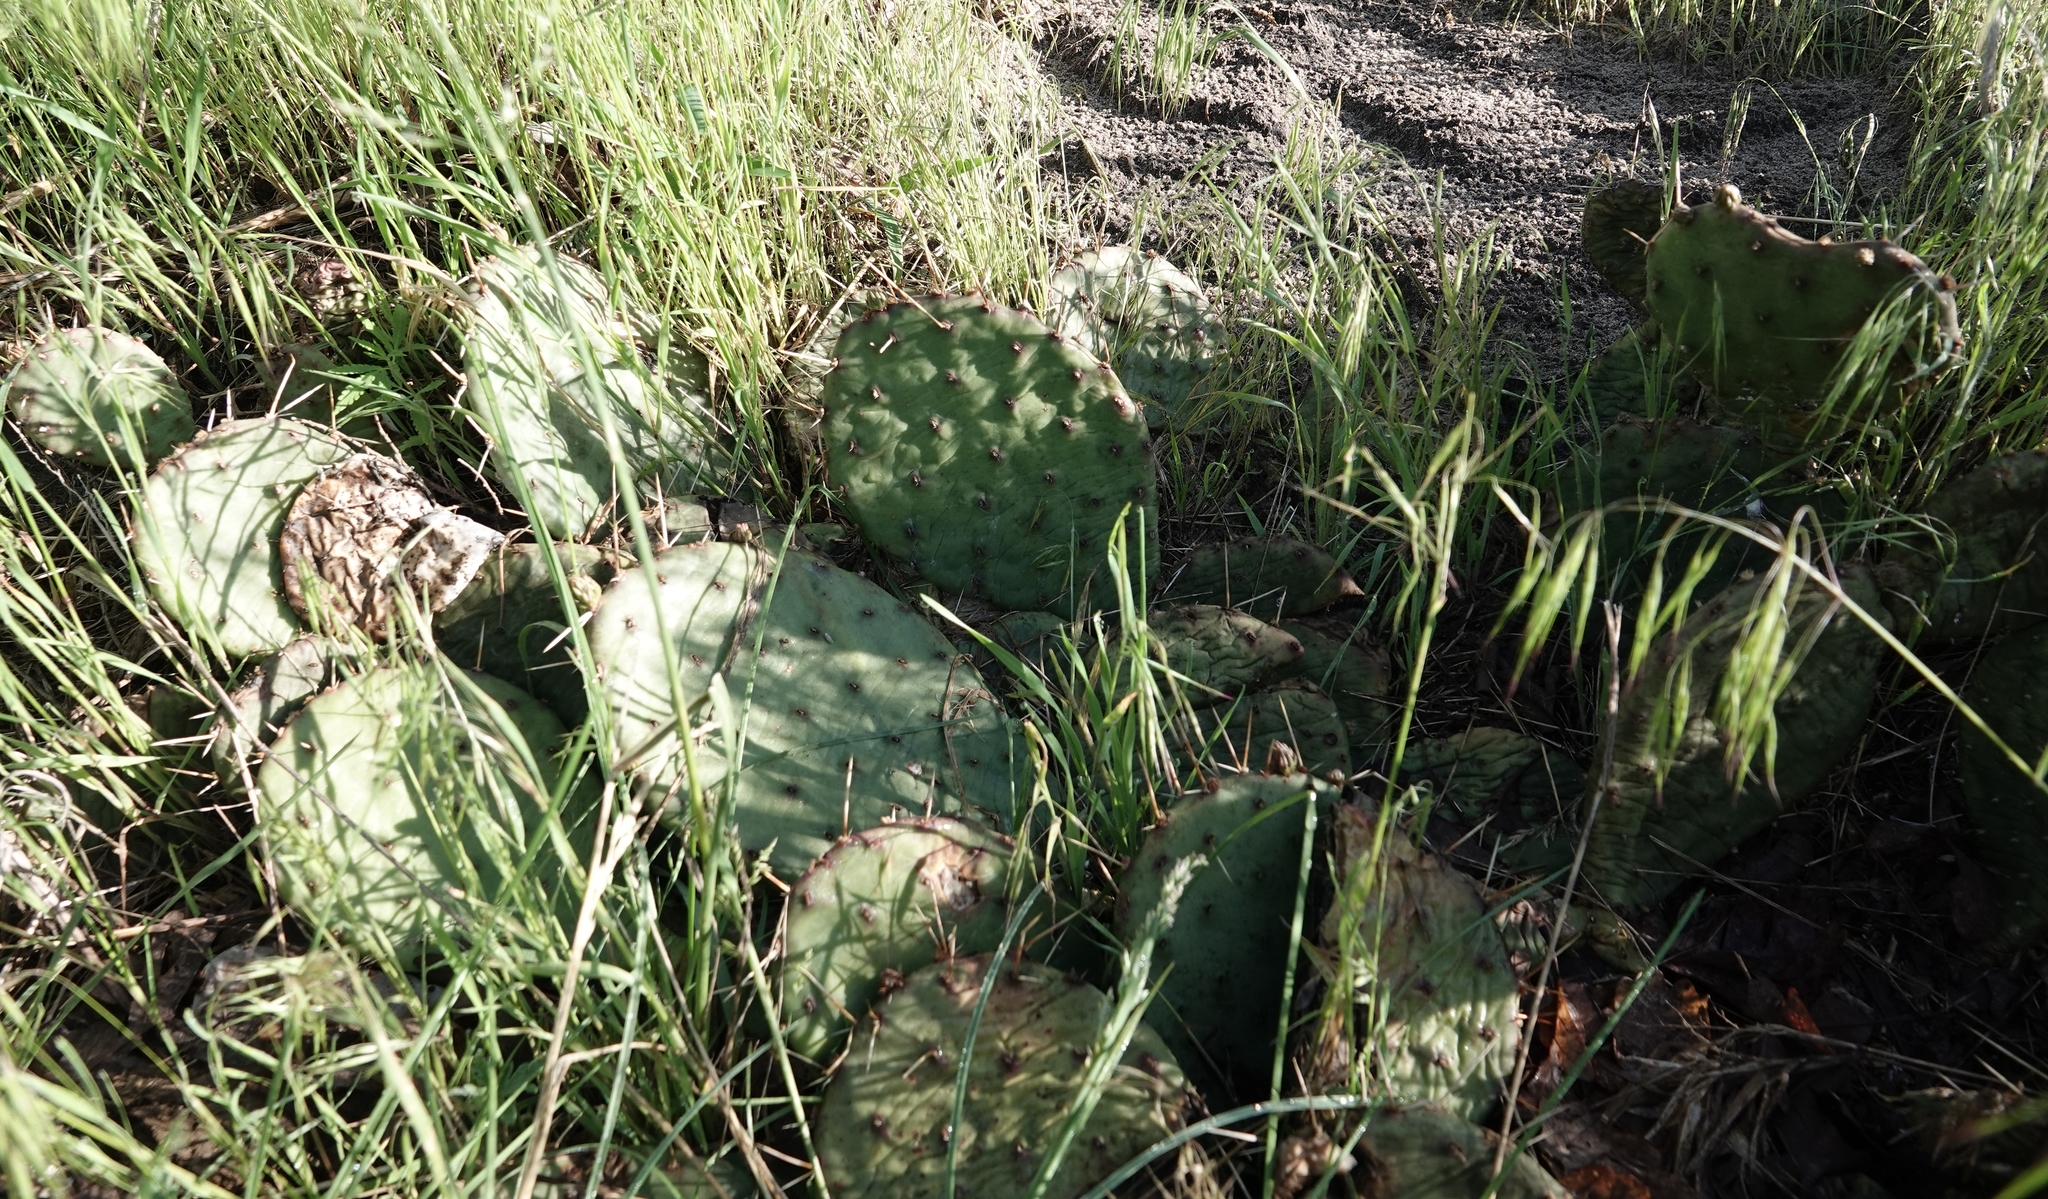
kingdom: Plantae
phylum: Tracheophyta
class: Magnoliopsida
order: Caryophyllales
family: Cactaceae
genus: Opuntia
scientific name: Opuntia macrorhiza
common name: Grassland pricklypear
